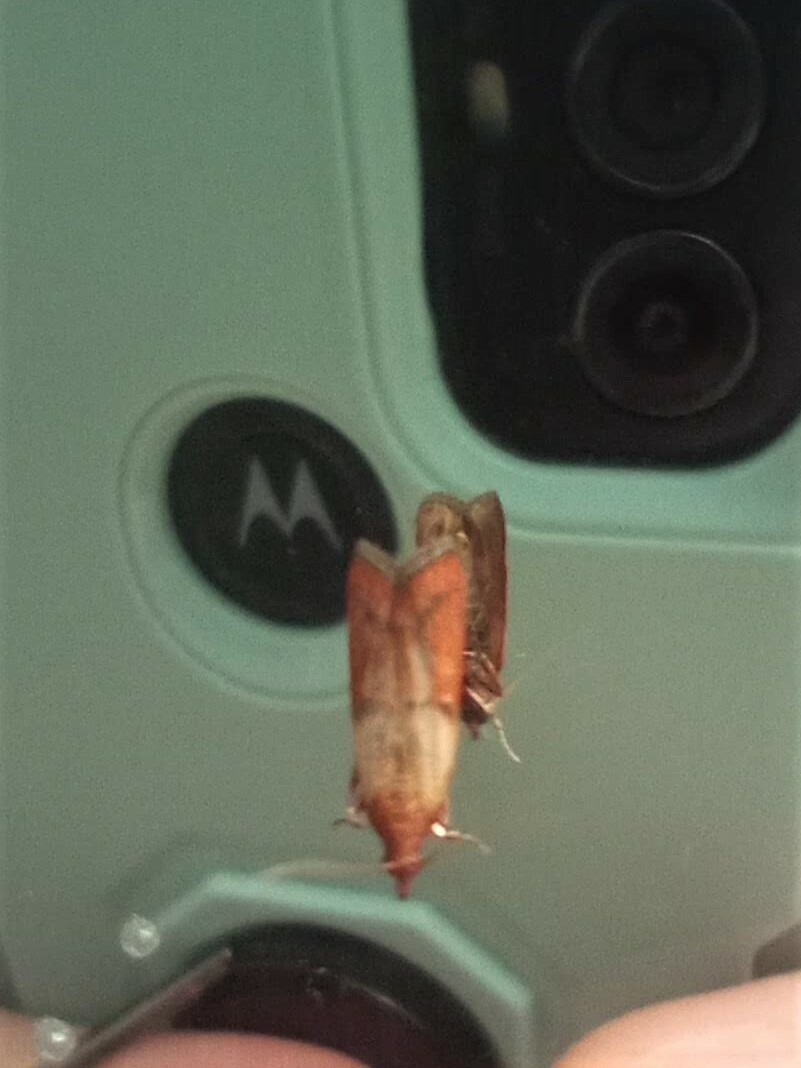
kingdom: Animalia
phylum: Arthropoda
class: Insecta
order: Lepidoptera
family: Pyralidae
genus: Plodia
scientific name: Plodia interpunctella
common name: Indian meal moth
